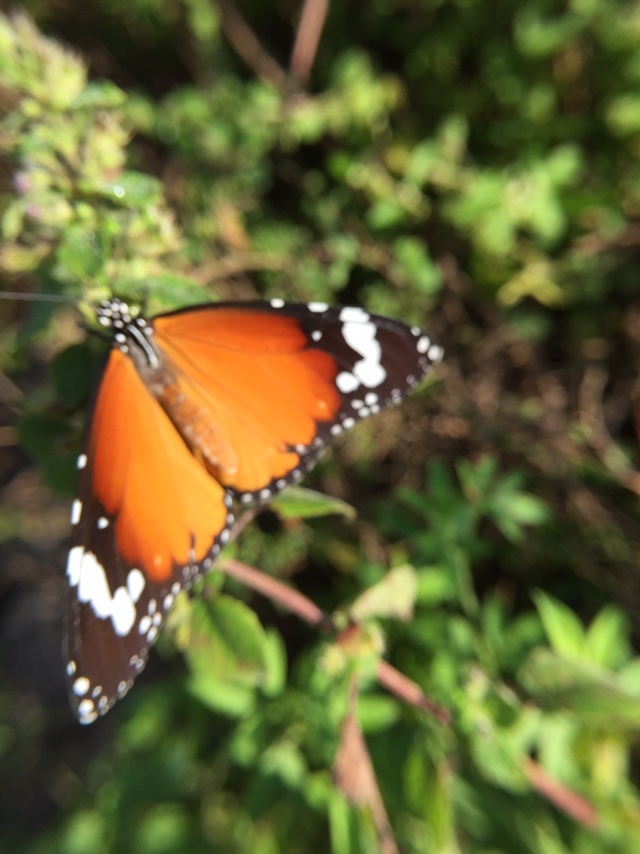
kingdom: Animalia
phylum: Arthropoda
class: Insecta
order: Lepidoptera
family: Nymphalidae
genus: Danaus
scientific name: Danaus chrysippus
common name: Plain tiger
